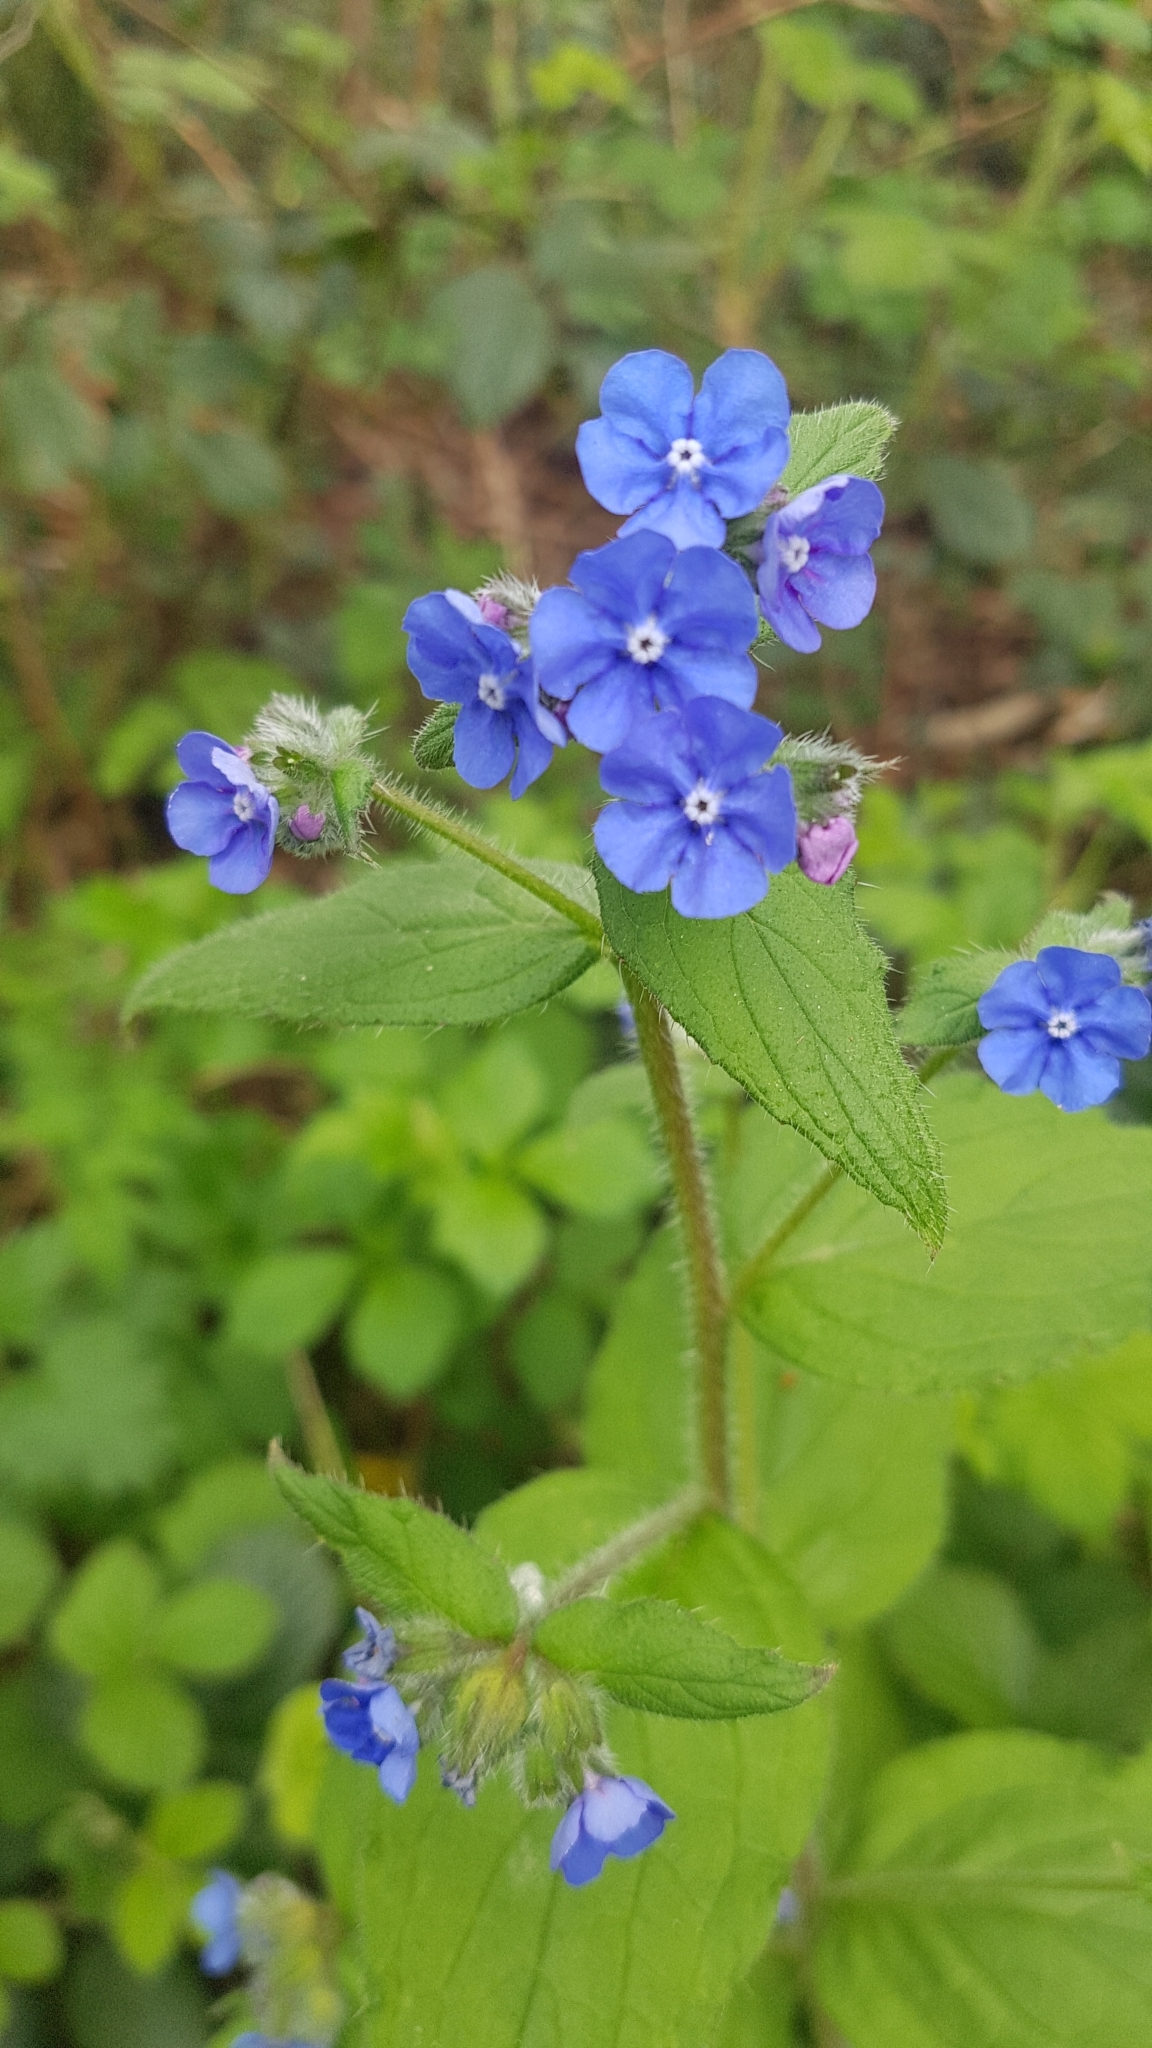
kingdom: Plantae
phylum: Tracheophyta
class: Magnoliopsida
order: Boraginales
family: Boraginaceae
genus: Pentaglottis
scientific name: Pentaglottis sempervirens
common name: Green alkanet
